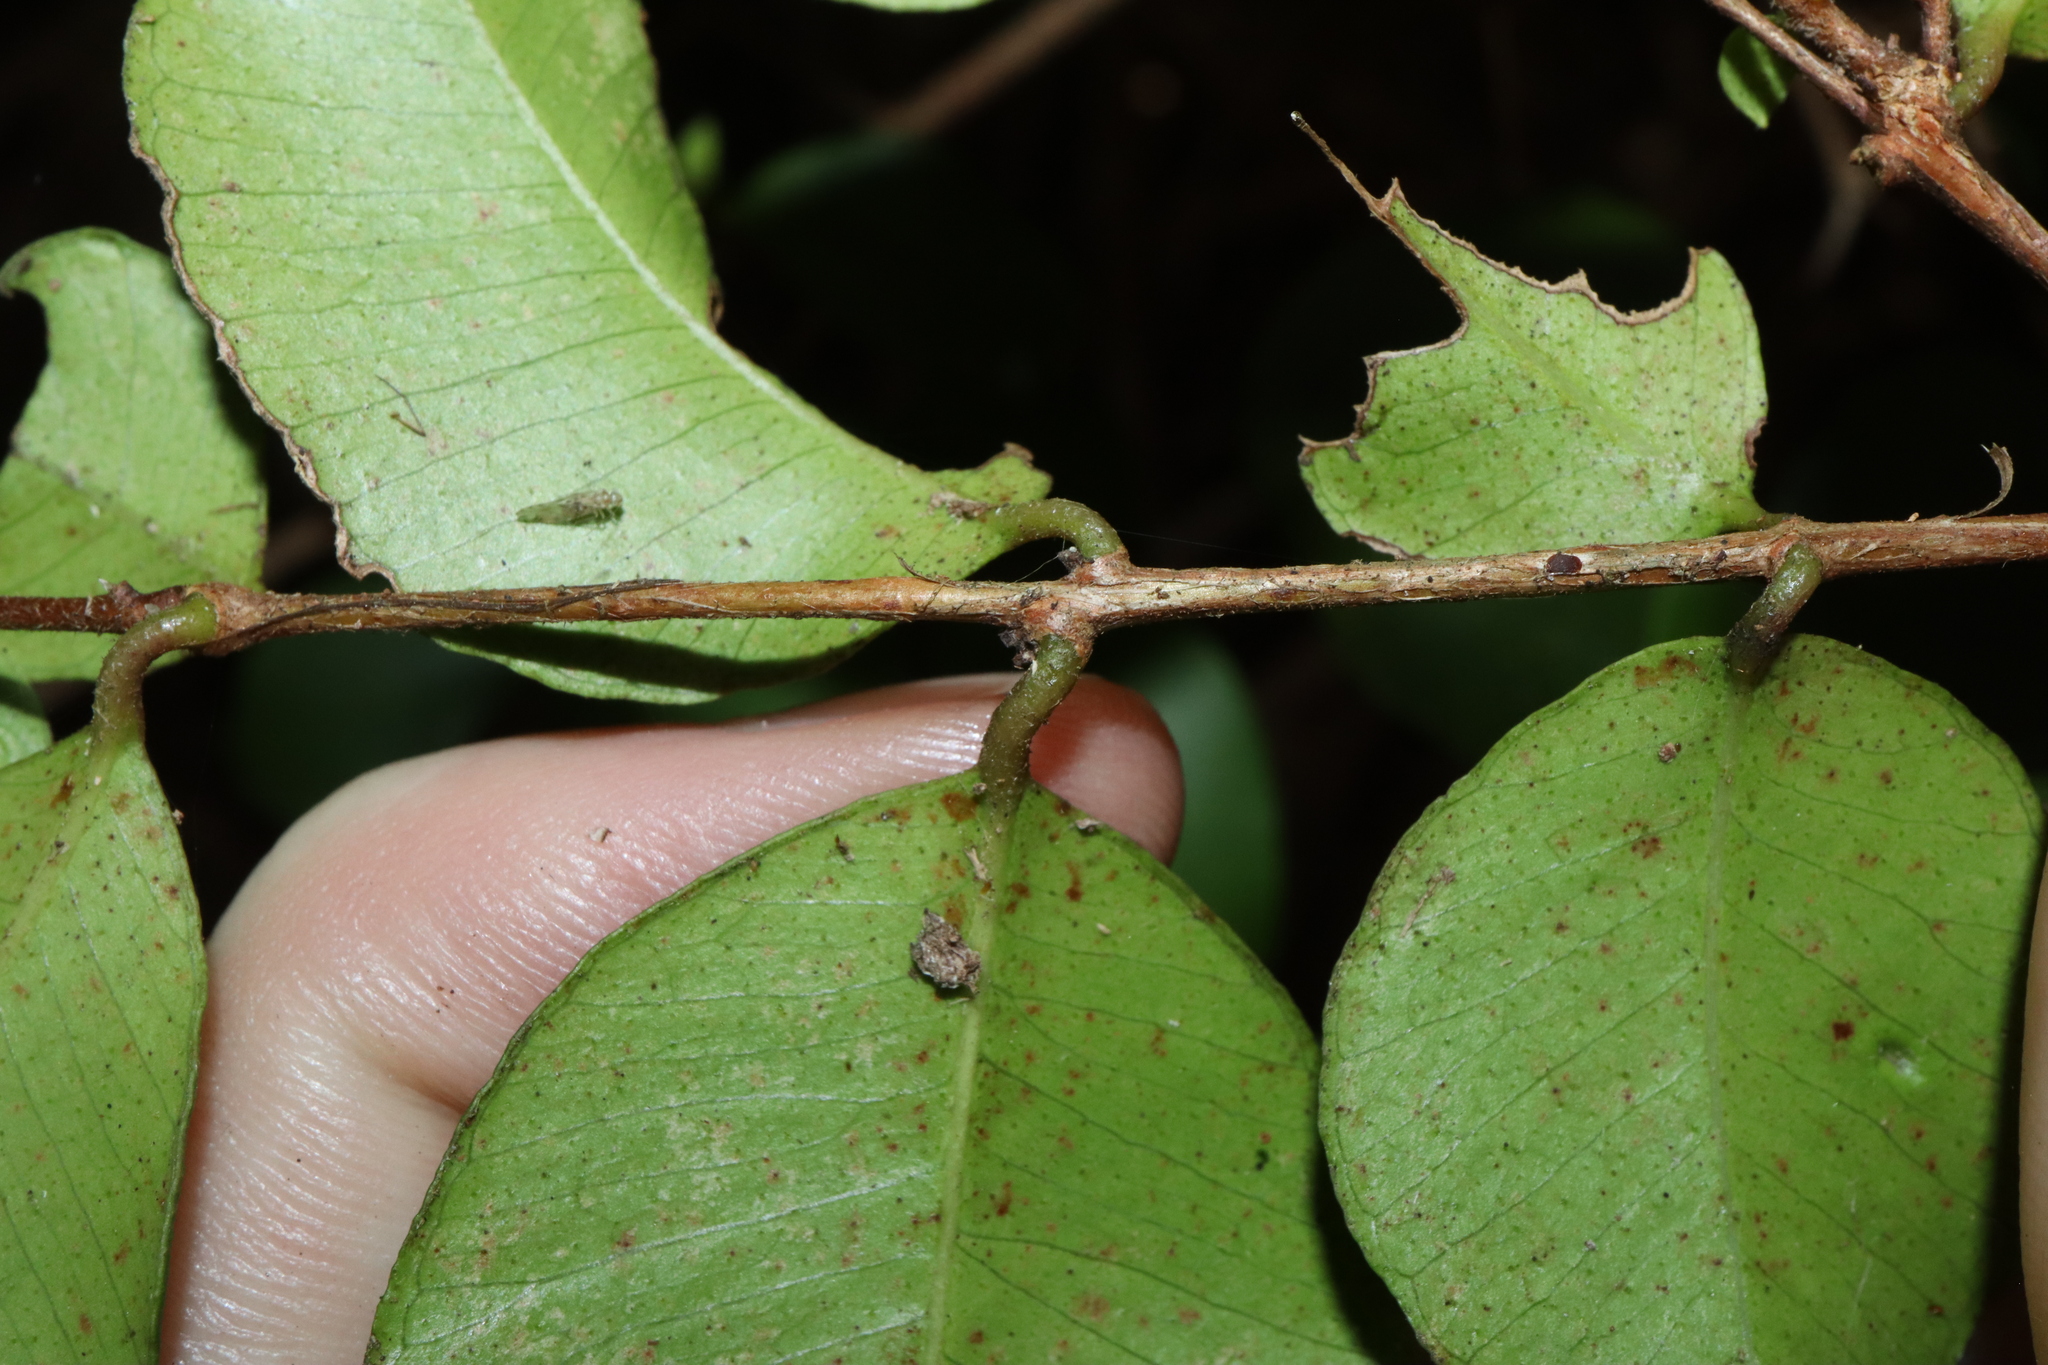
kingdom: Plantae
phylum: Tracheophyta
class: Magnoliopsida
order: Myrtales
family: Myrtaceae
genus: Backhousia
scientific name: Backhousia myrtifolia
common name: Carrol
